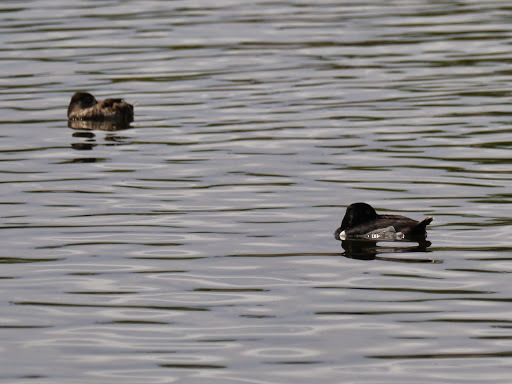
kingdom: Animalia
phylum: Chordata
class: Aves
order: Anseriformes
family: Anatidae
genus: Aythya
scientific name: Aythya collaris
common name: Ring-necked duck
